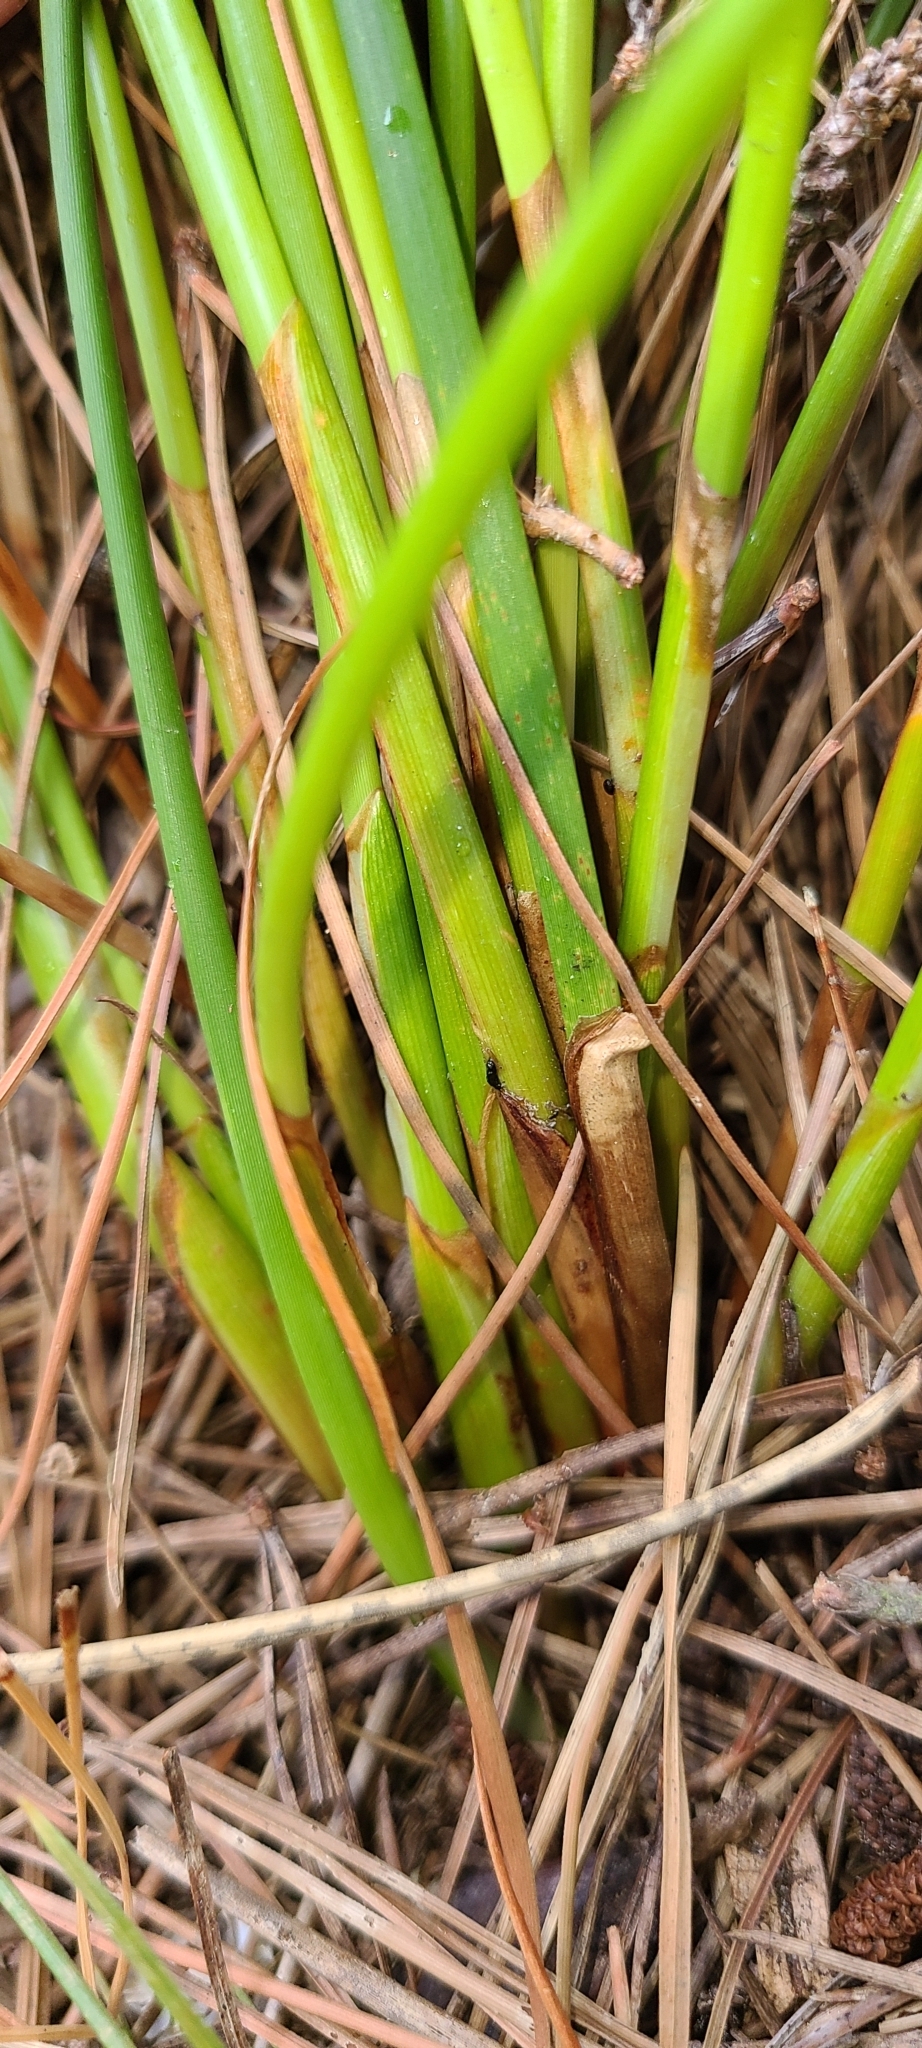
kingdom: Plantae
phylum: Tracheophyta
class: Liliopsida
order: Poales
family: Cyperaceae
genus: Ficinia
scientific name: Ficinia nodosa
